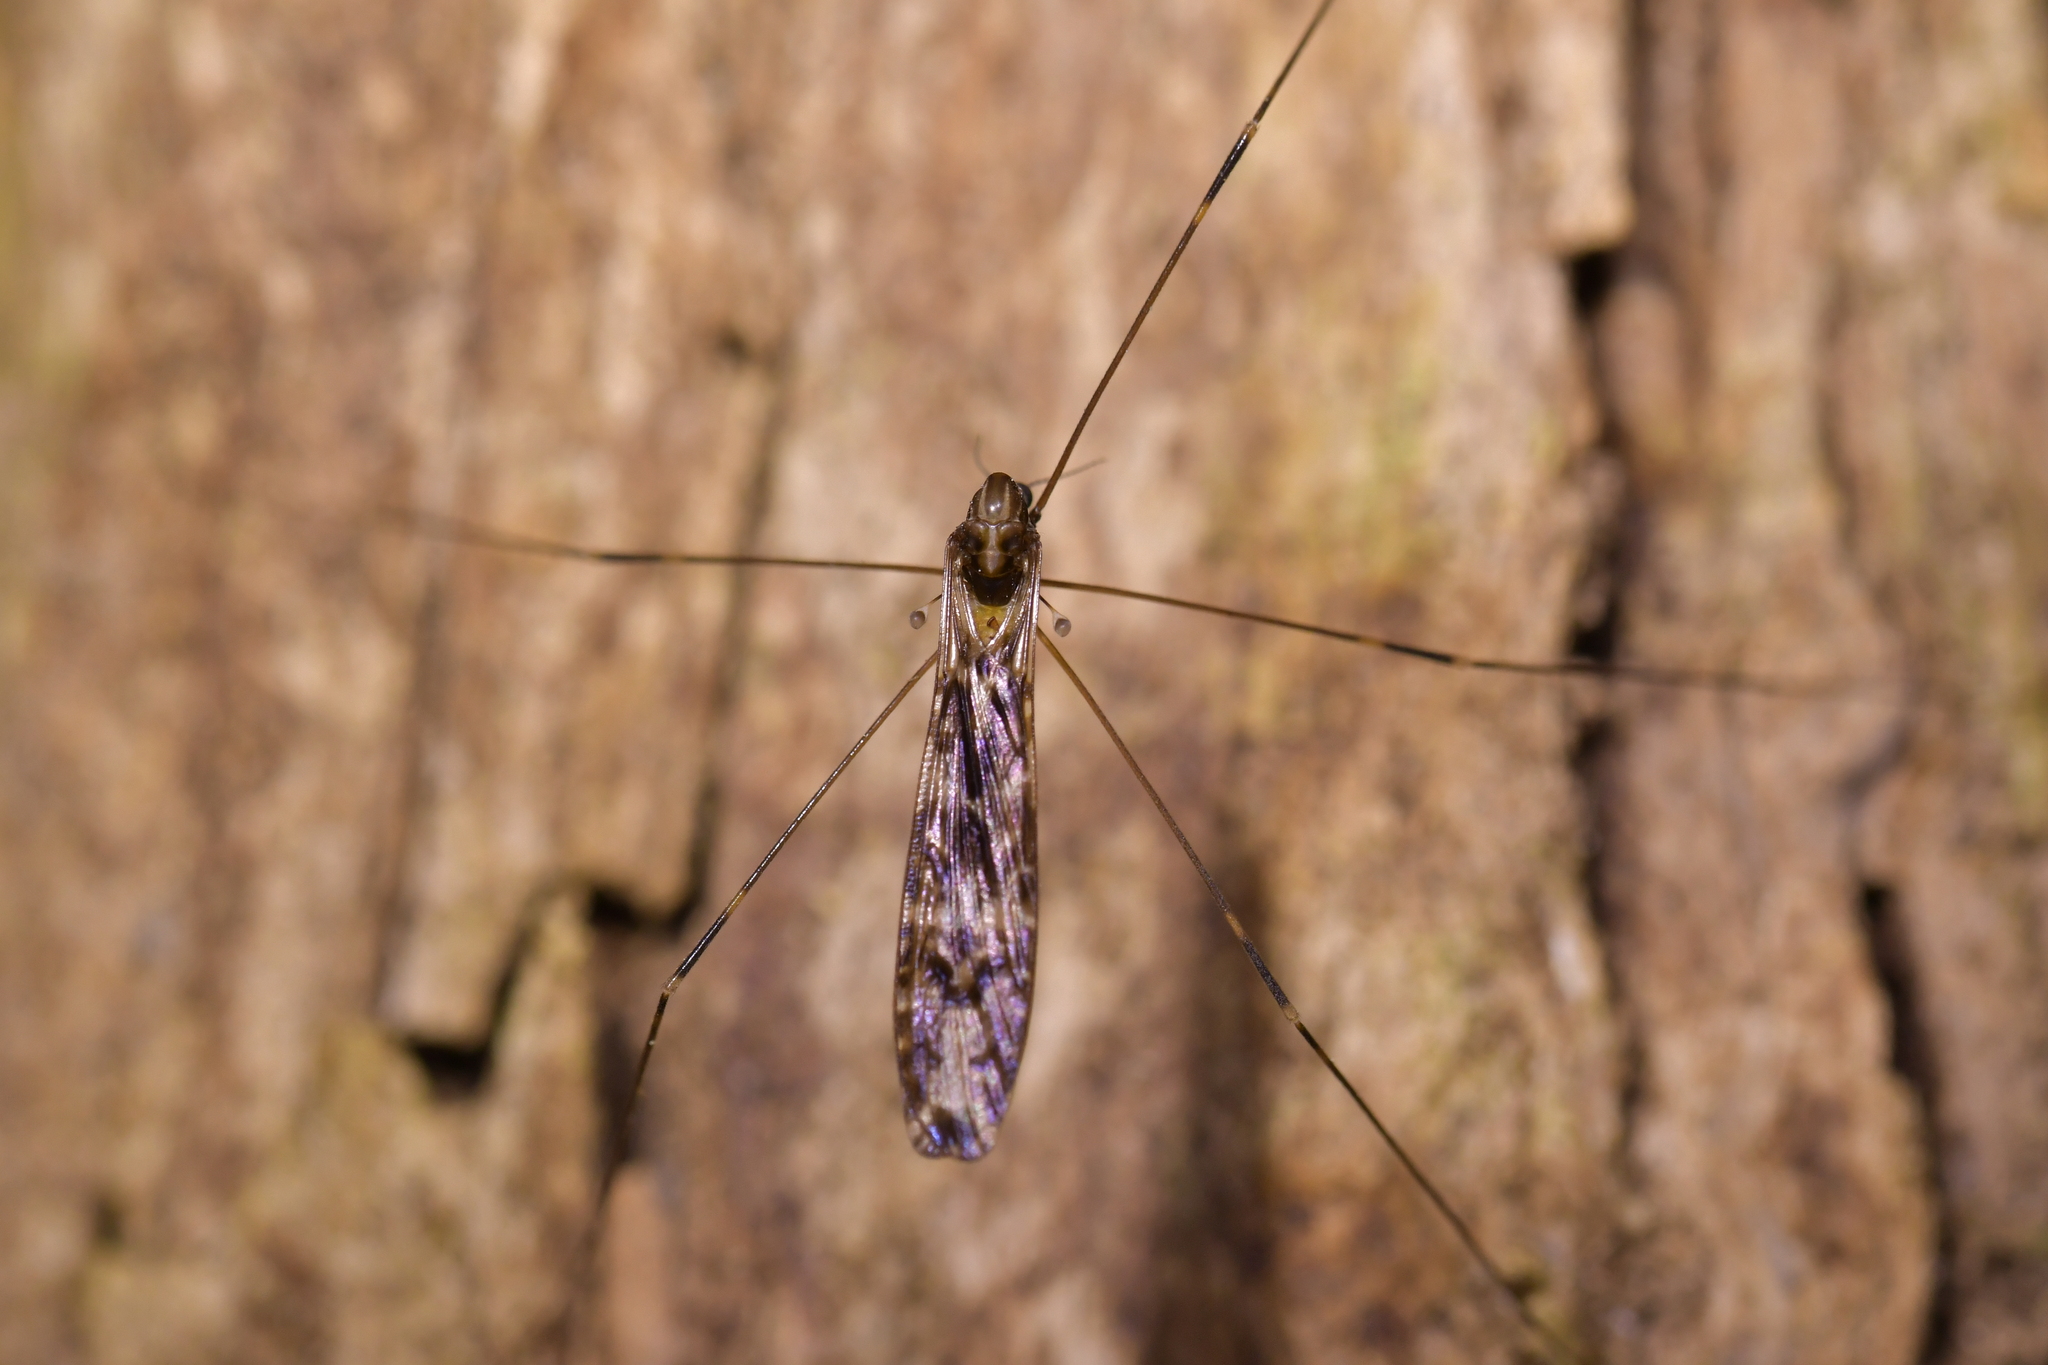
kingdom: Animalia
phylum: Arthropoda
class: Insecta
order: Diptera
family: Limoniidae
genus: Discobola
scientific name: Discobola dohrni
